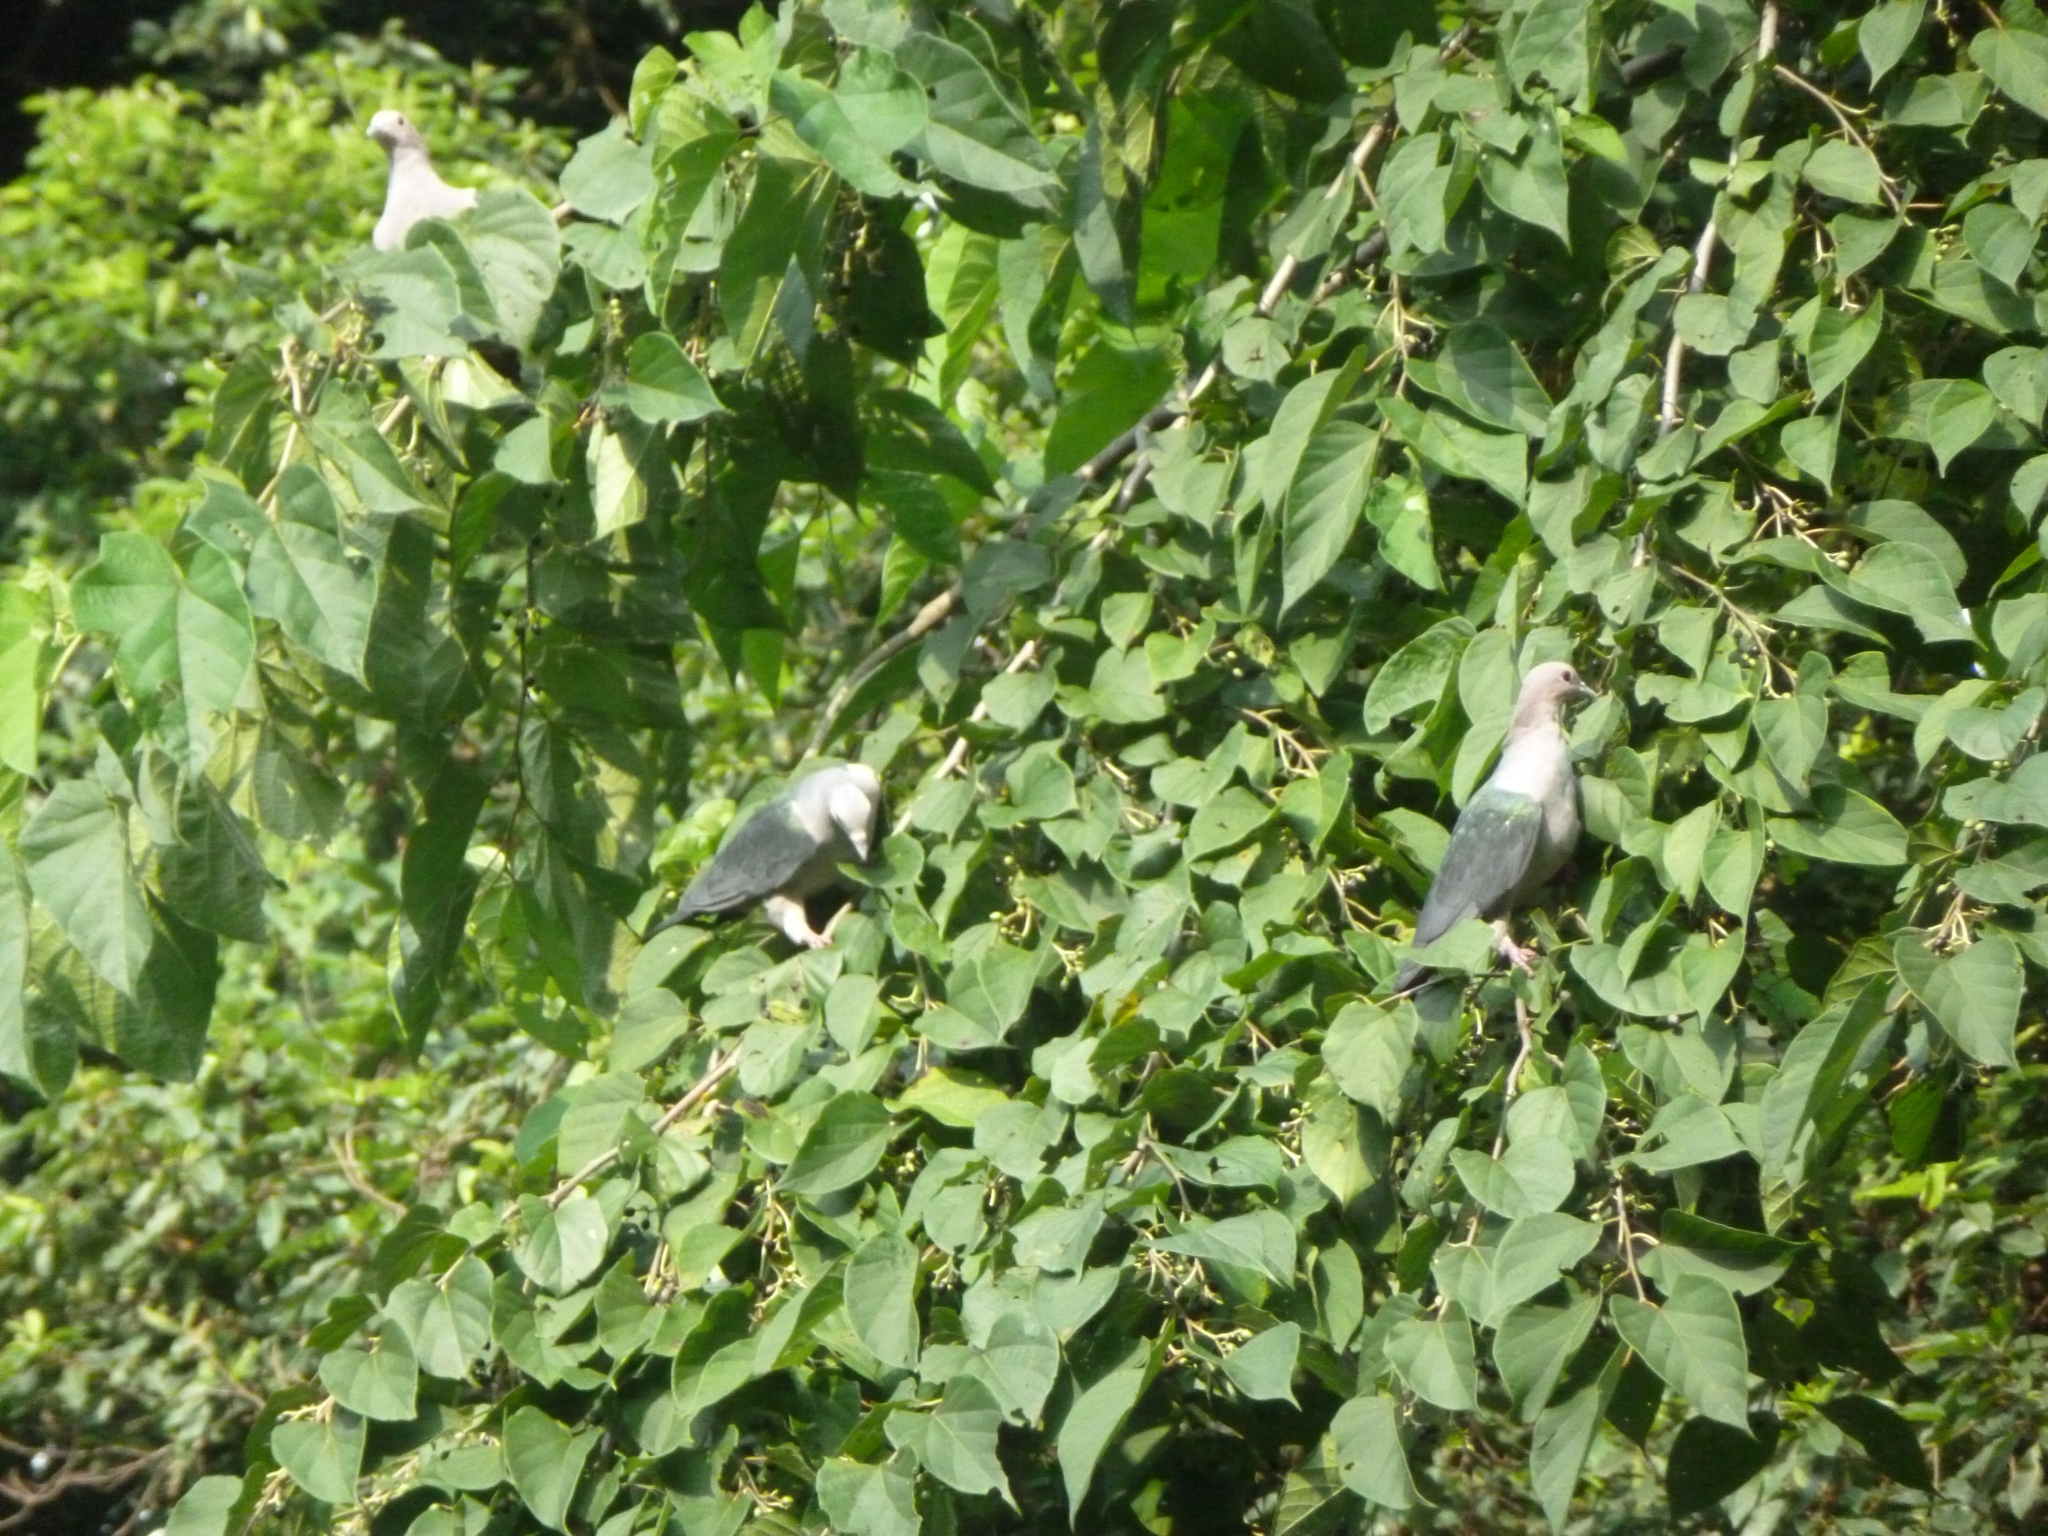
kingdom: Animalia
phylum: Chordata
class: Aves
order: Columbiformes
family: Columbidae
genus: Ducula
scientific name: Ducula aenea
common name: Green imperial pigeon
